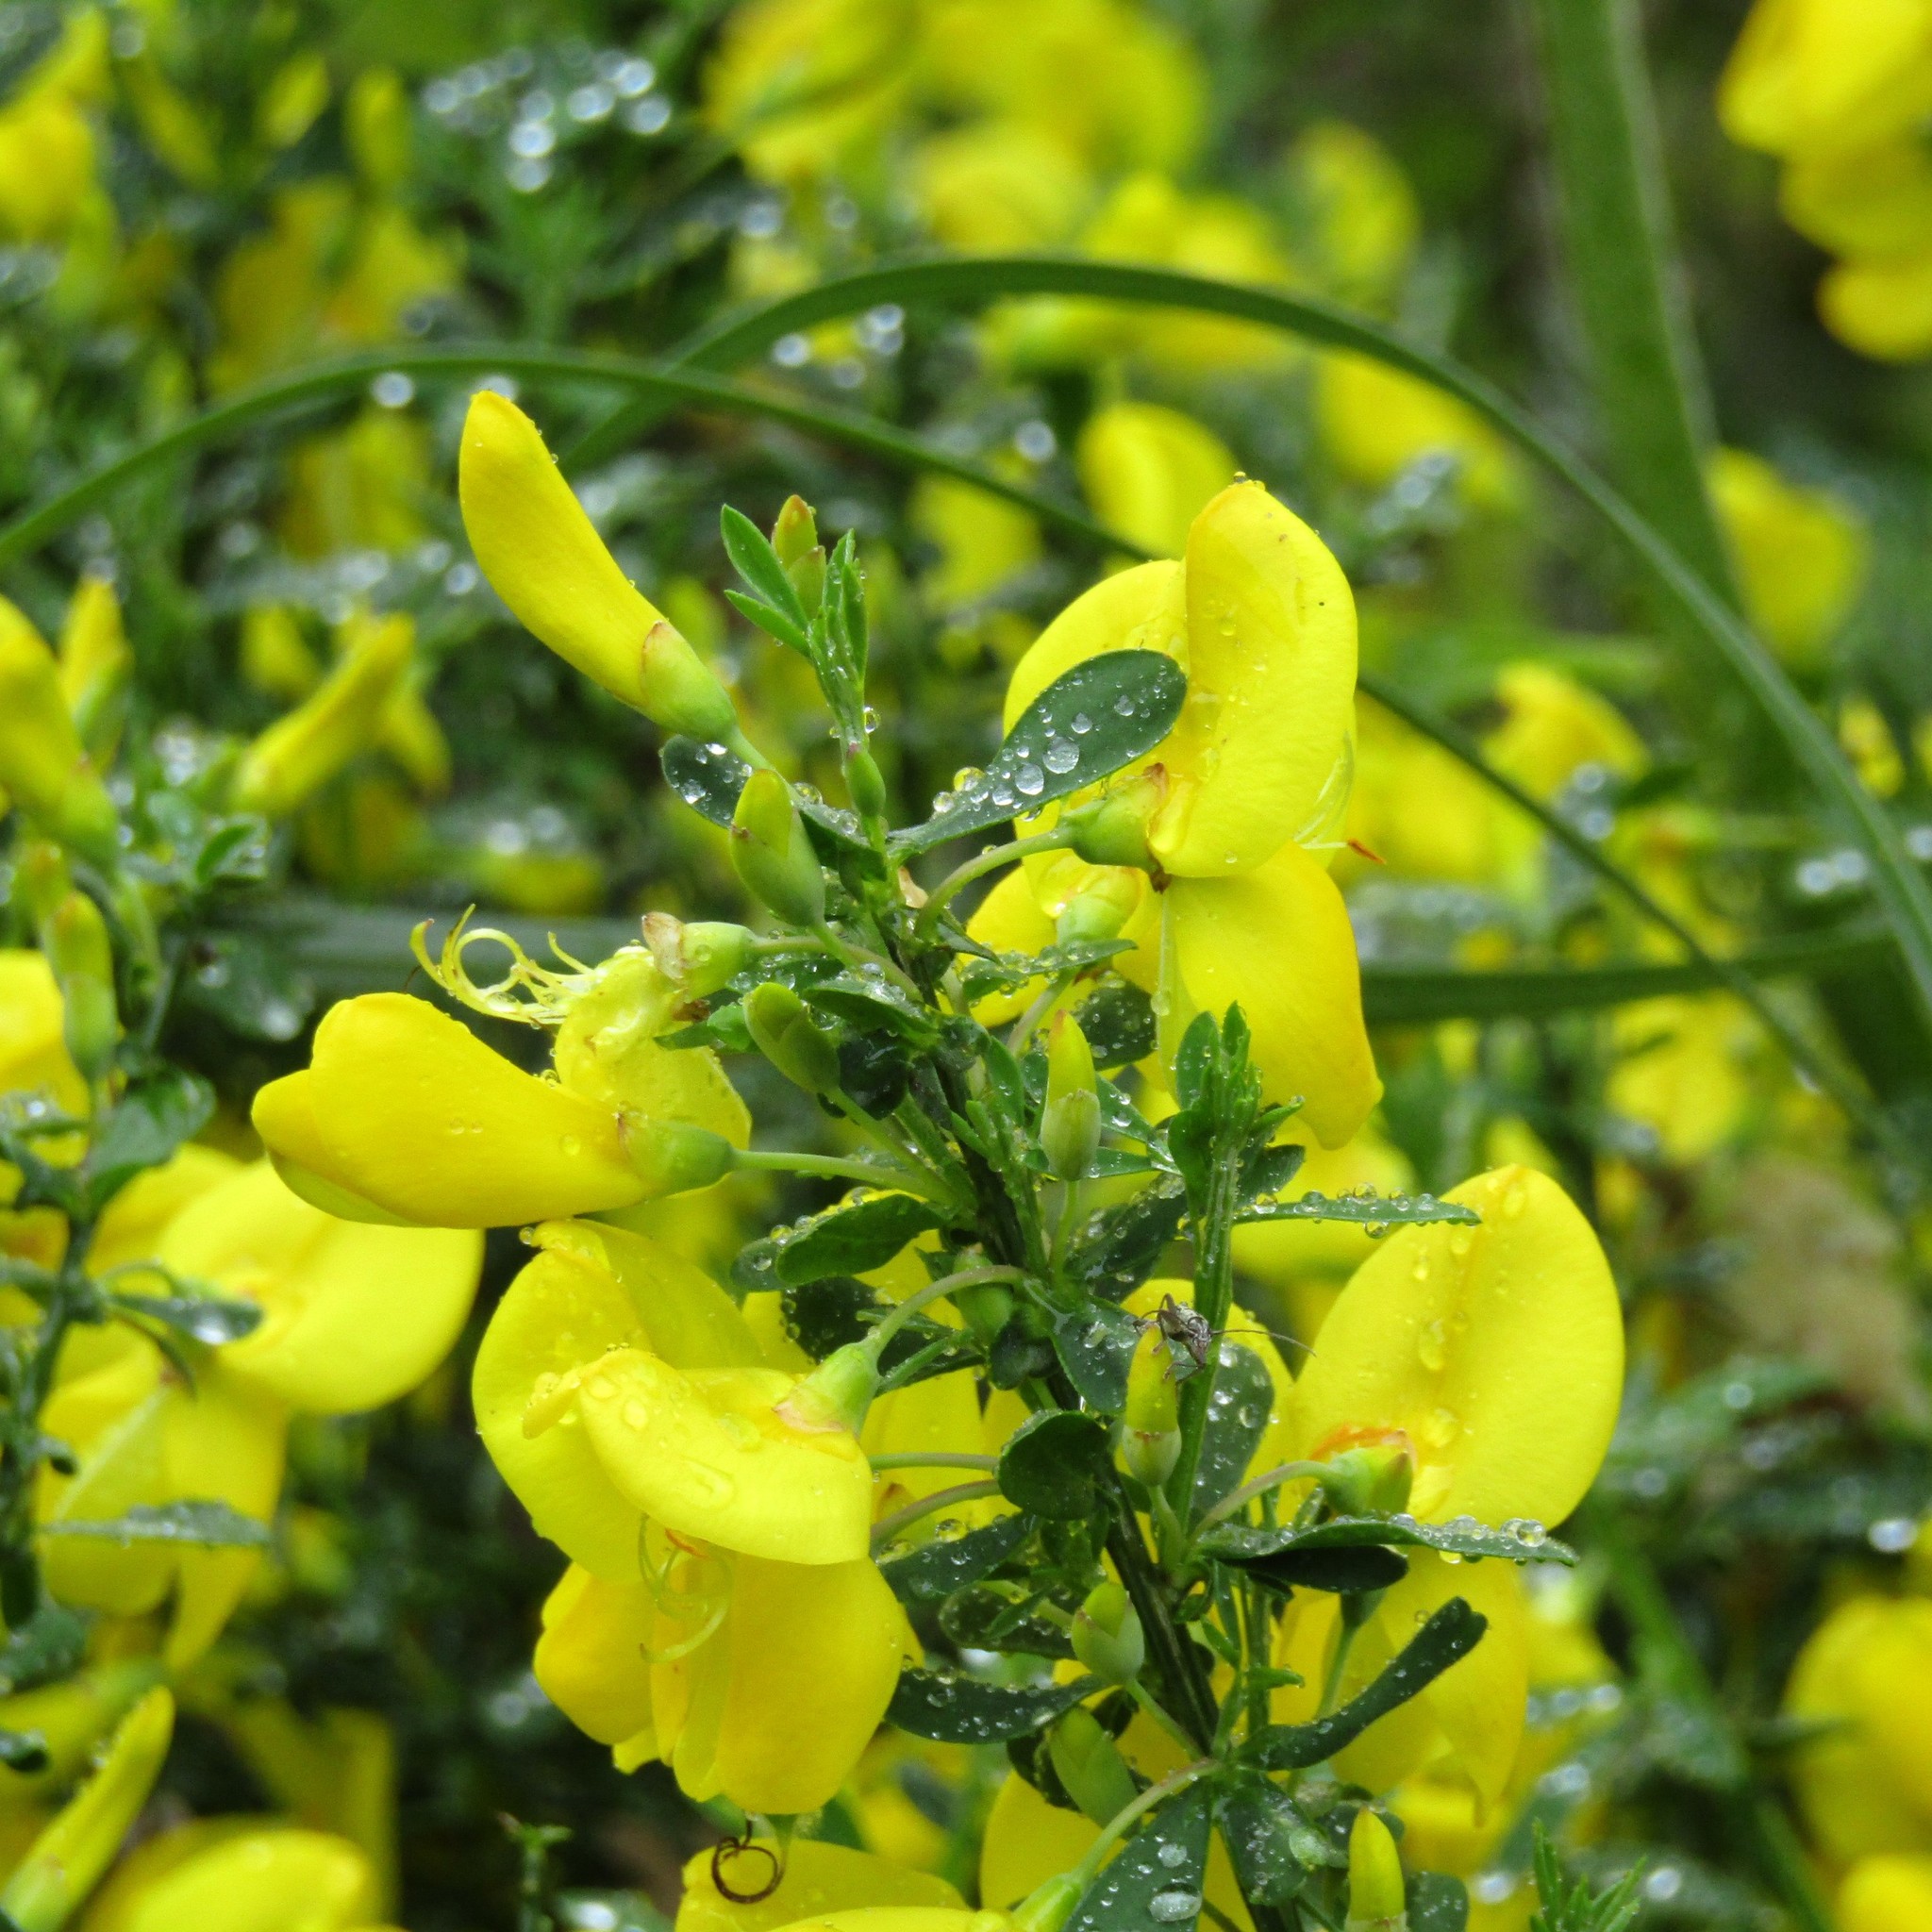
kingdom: Plantae
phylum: Tracheophyta
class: Magnoliopsida
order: Fabales
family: Fabaceae
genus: Cytisus
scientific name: Cytisus scoparius
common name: Scotch broom
